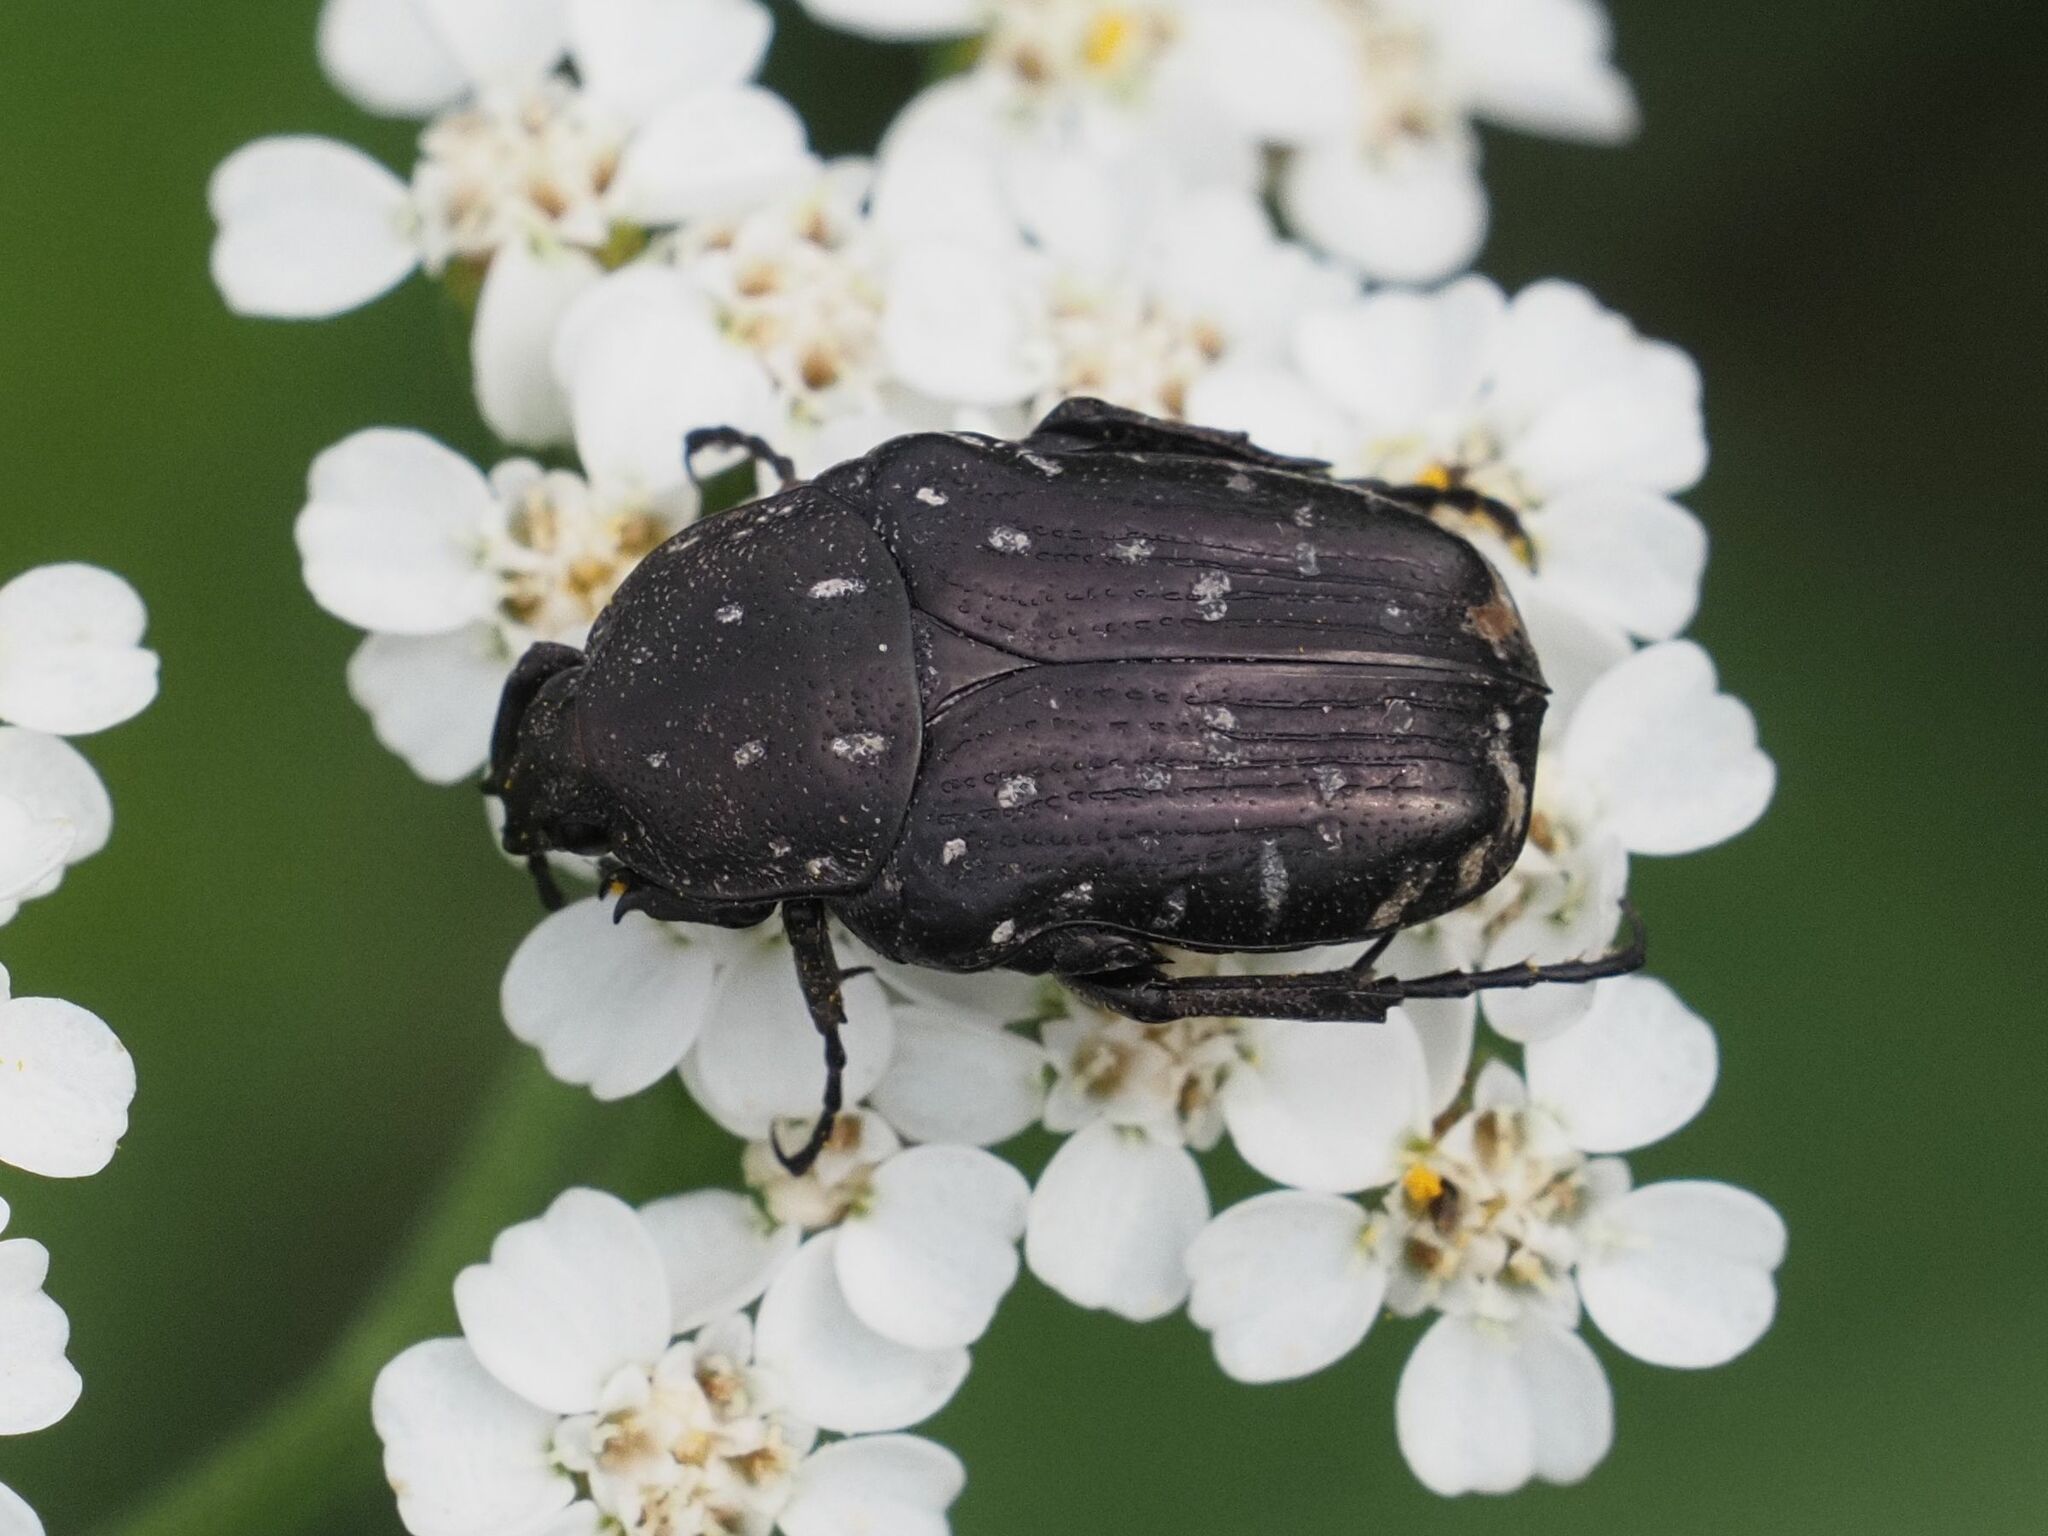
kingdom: Animalia
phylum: Arthropoda
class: Insecta
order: Coleoptera
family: Scarabaeidae
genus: Oxythyrea
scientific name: Oxythyrea funesta
